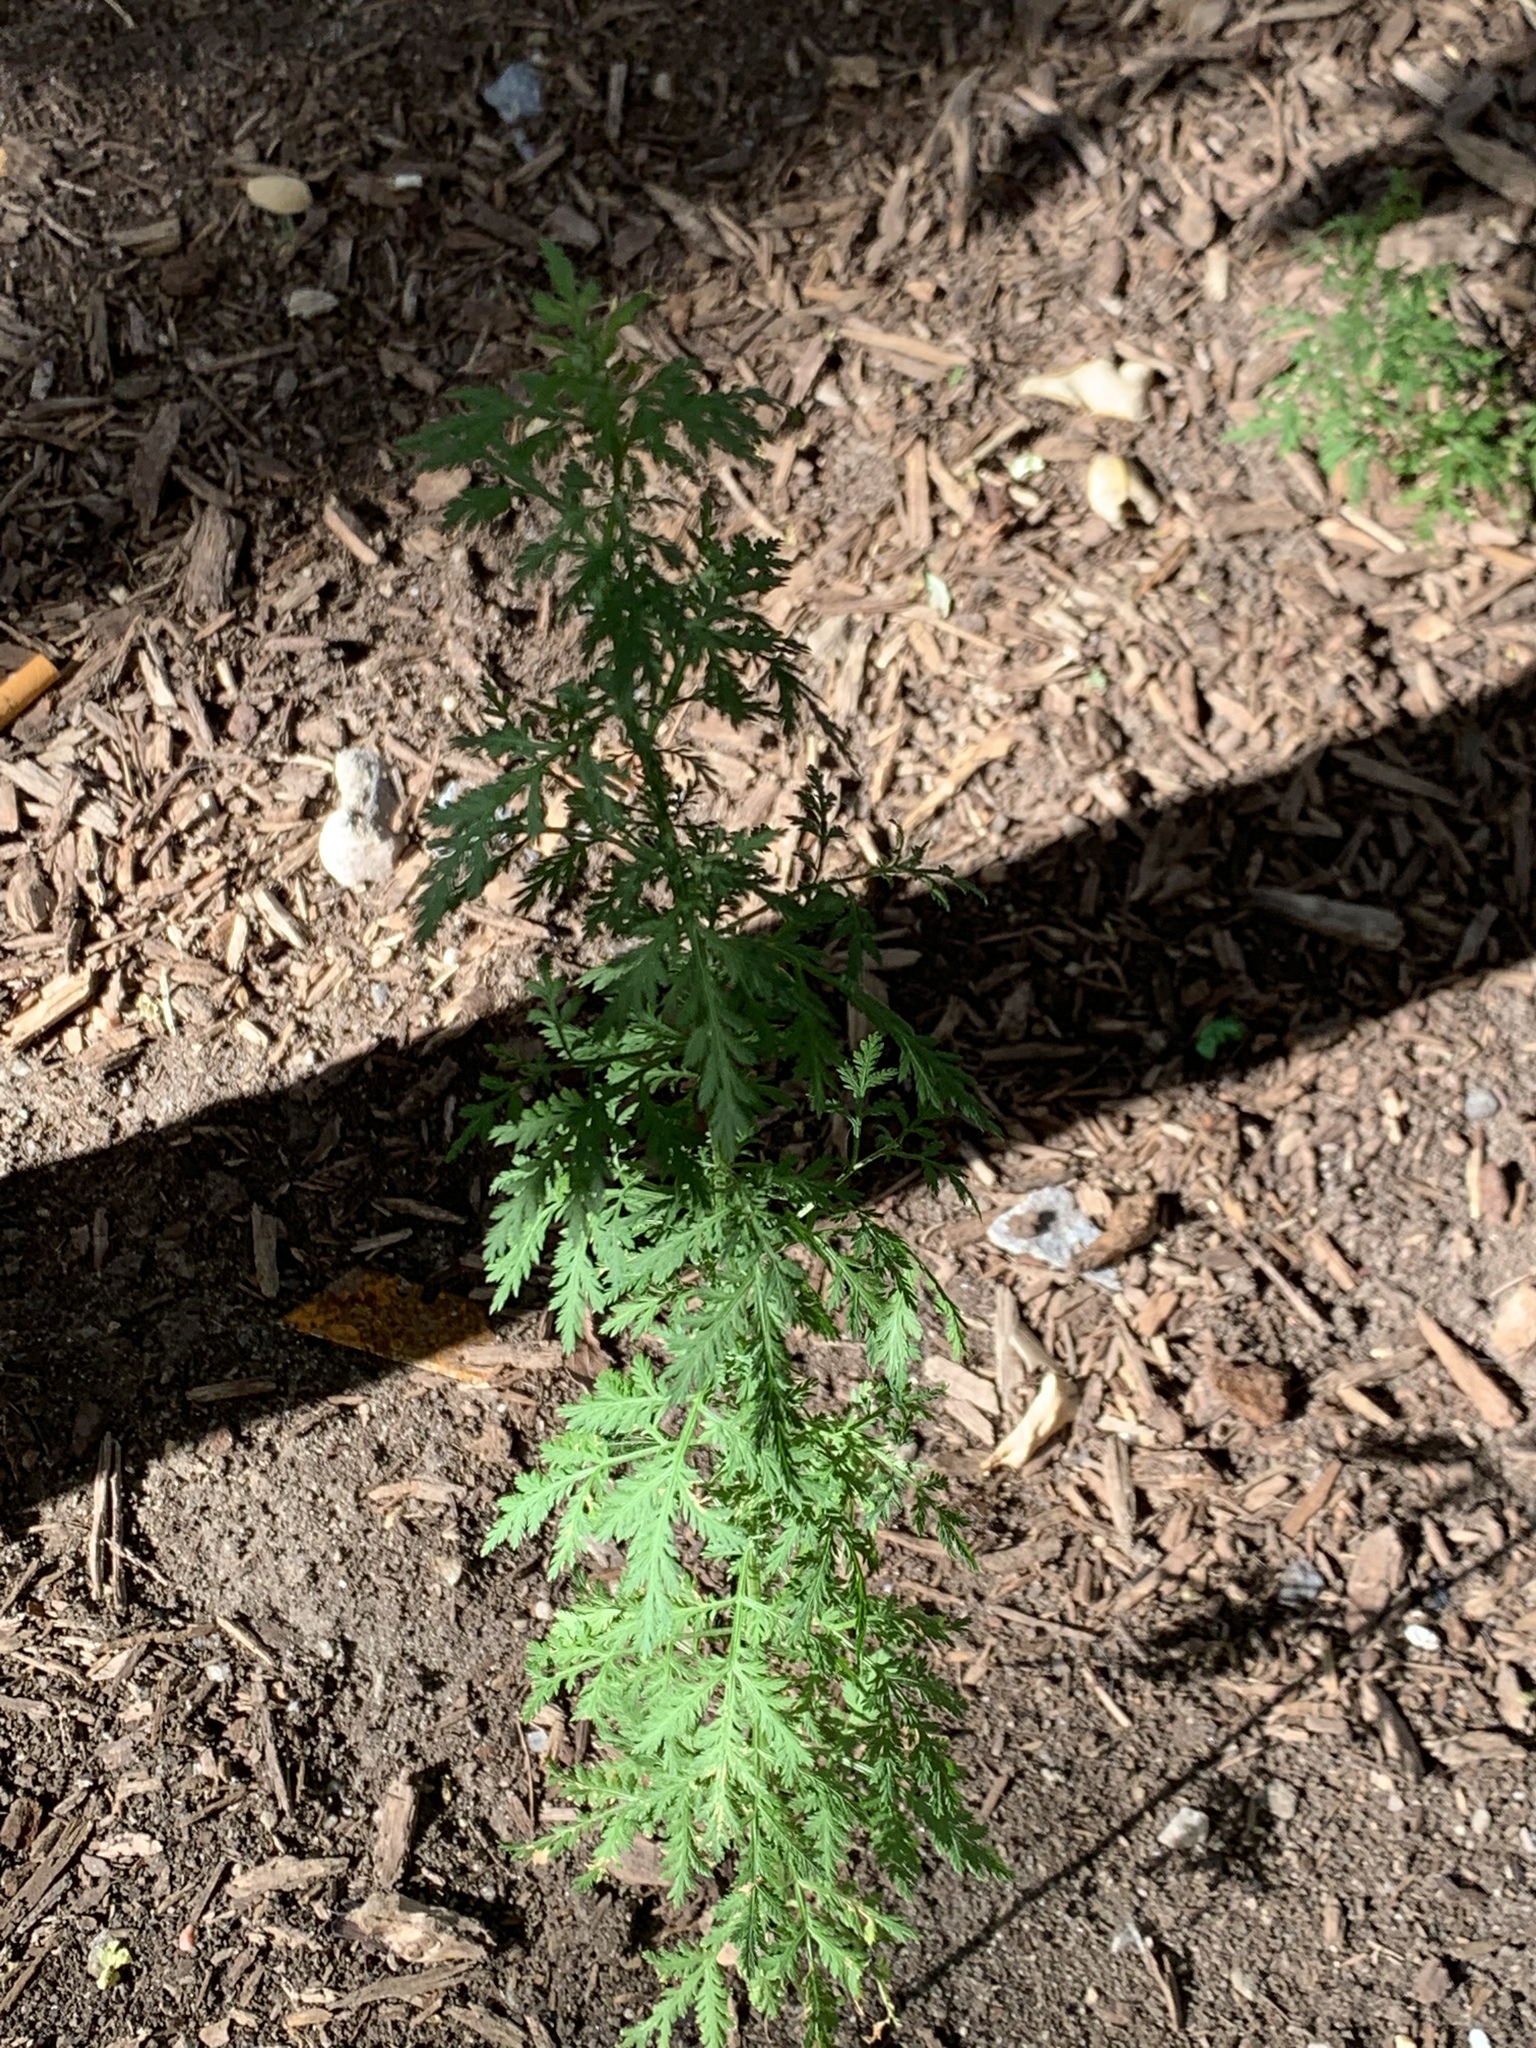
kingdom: Plantae
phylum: Tracheophyta
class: Magnoliopsida
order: Asterales
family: Asteraceae
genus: Artemisia
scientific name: Artemisia annua
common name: Sweet sagewort
